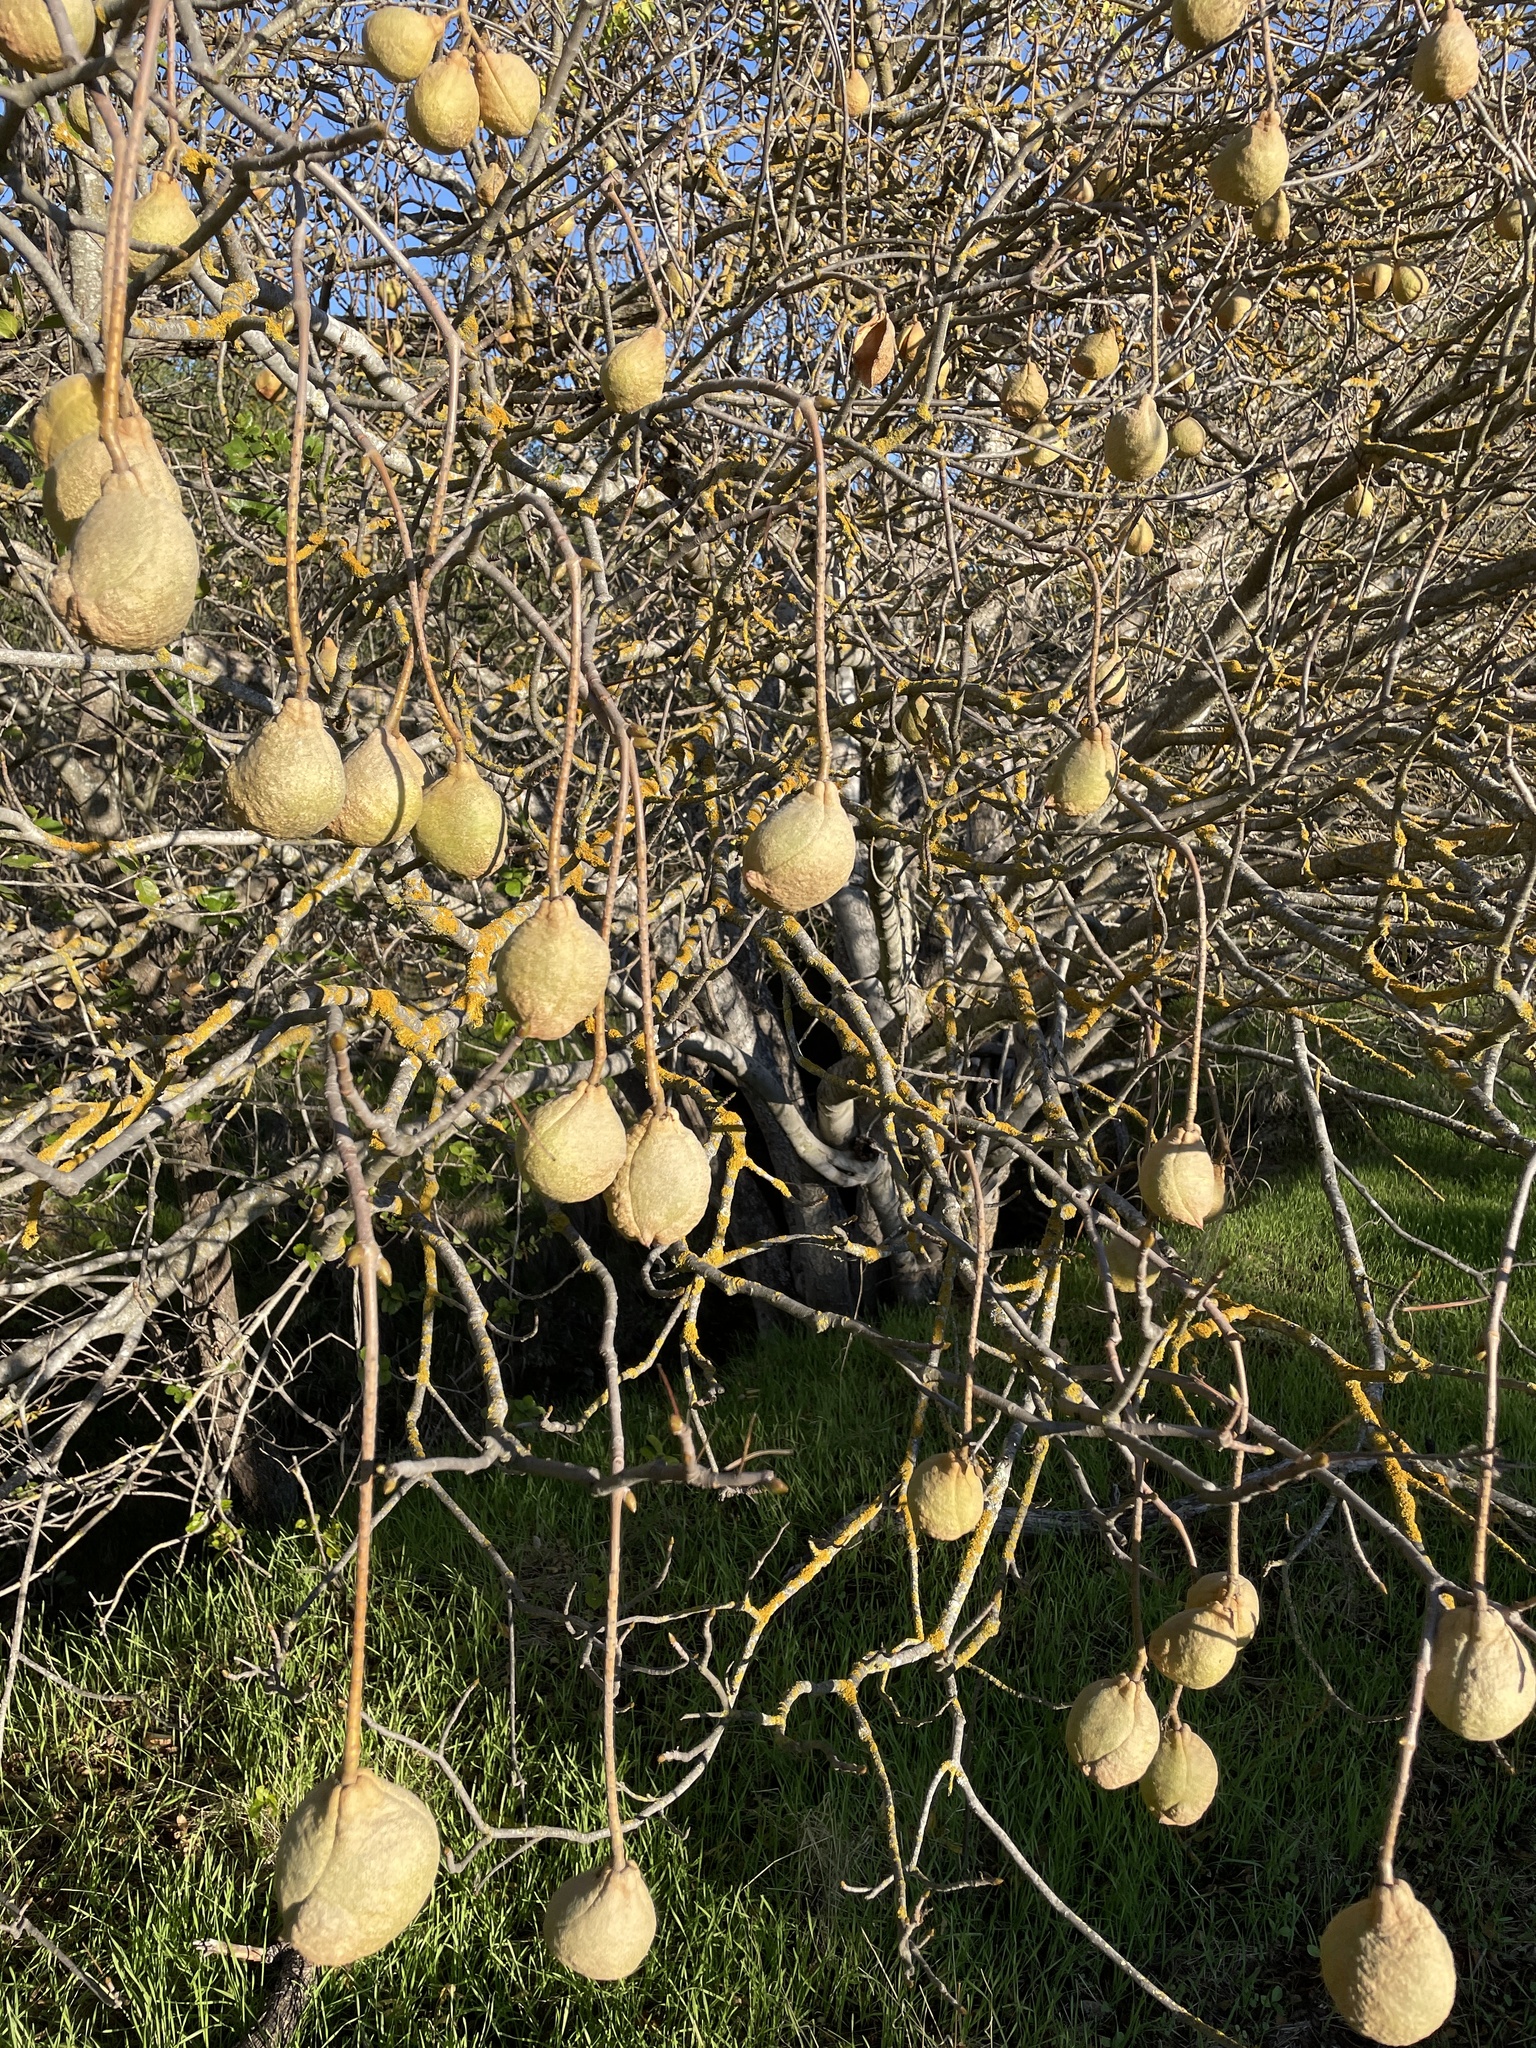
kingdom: Plantae
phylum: Tracheophyta
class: Magnoliopsida
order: Sapindales
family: Sapindaceae
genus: Aesculus
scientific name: Aesculus californica
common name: California buckeye
